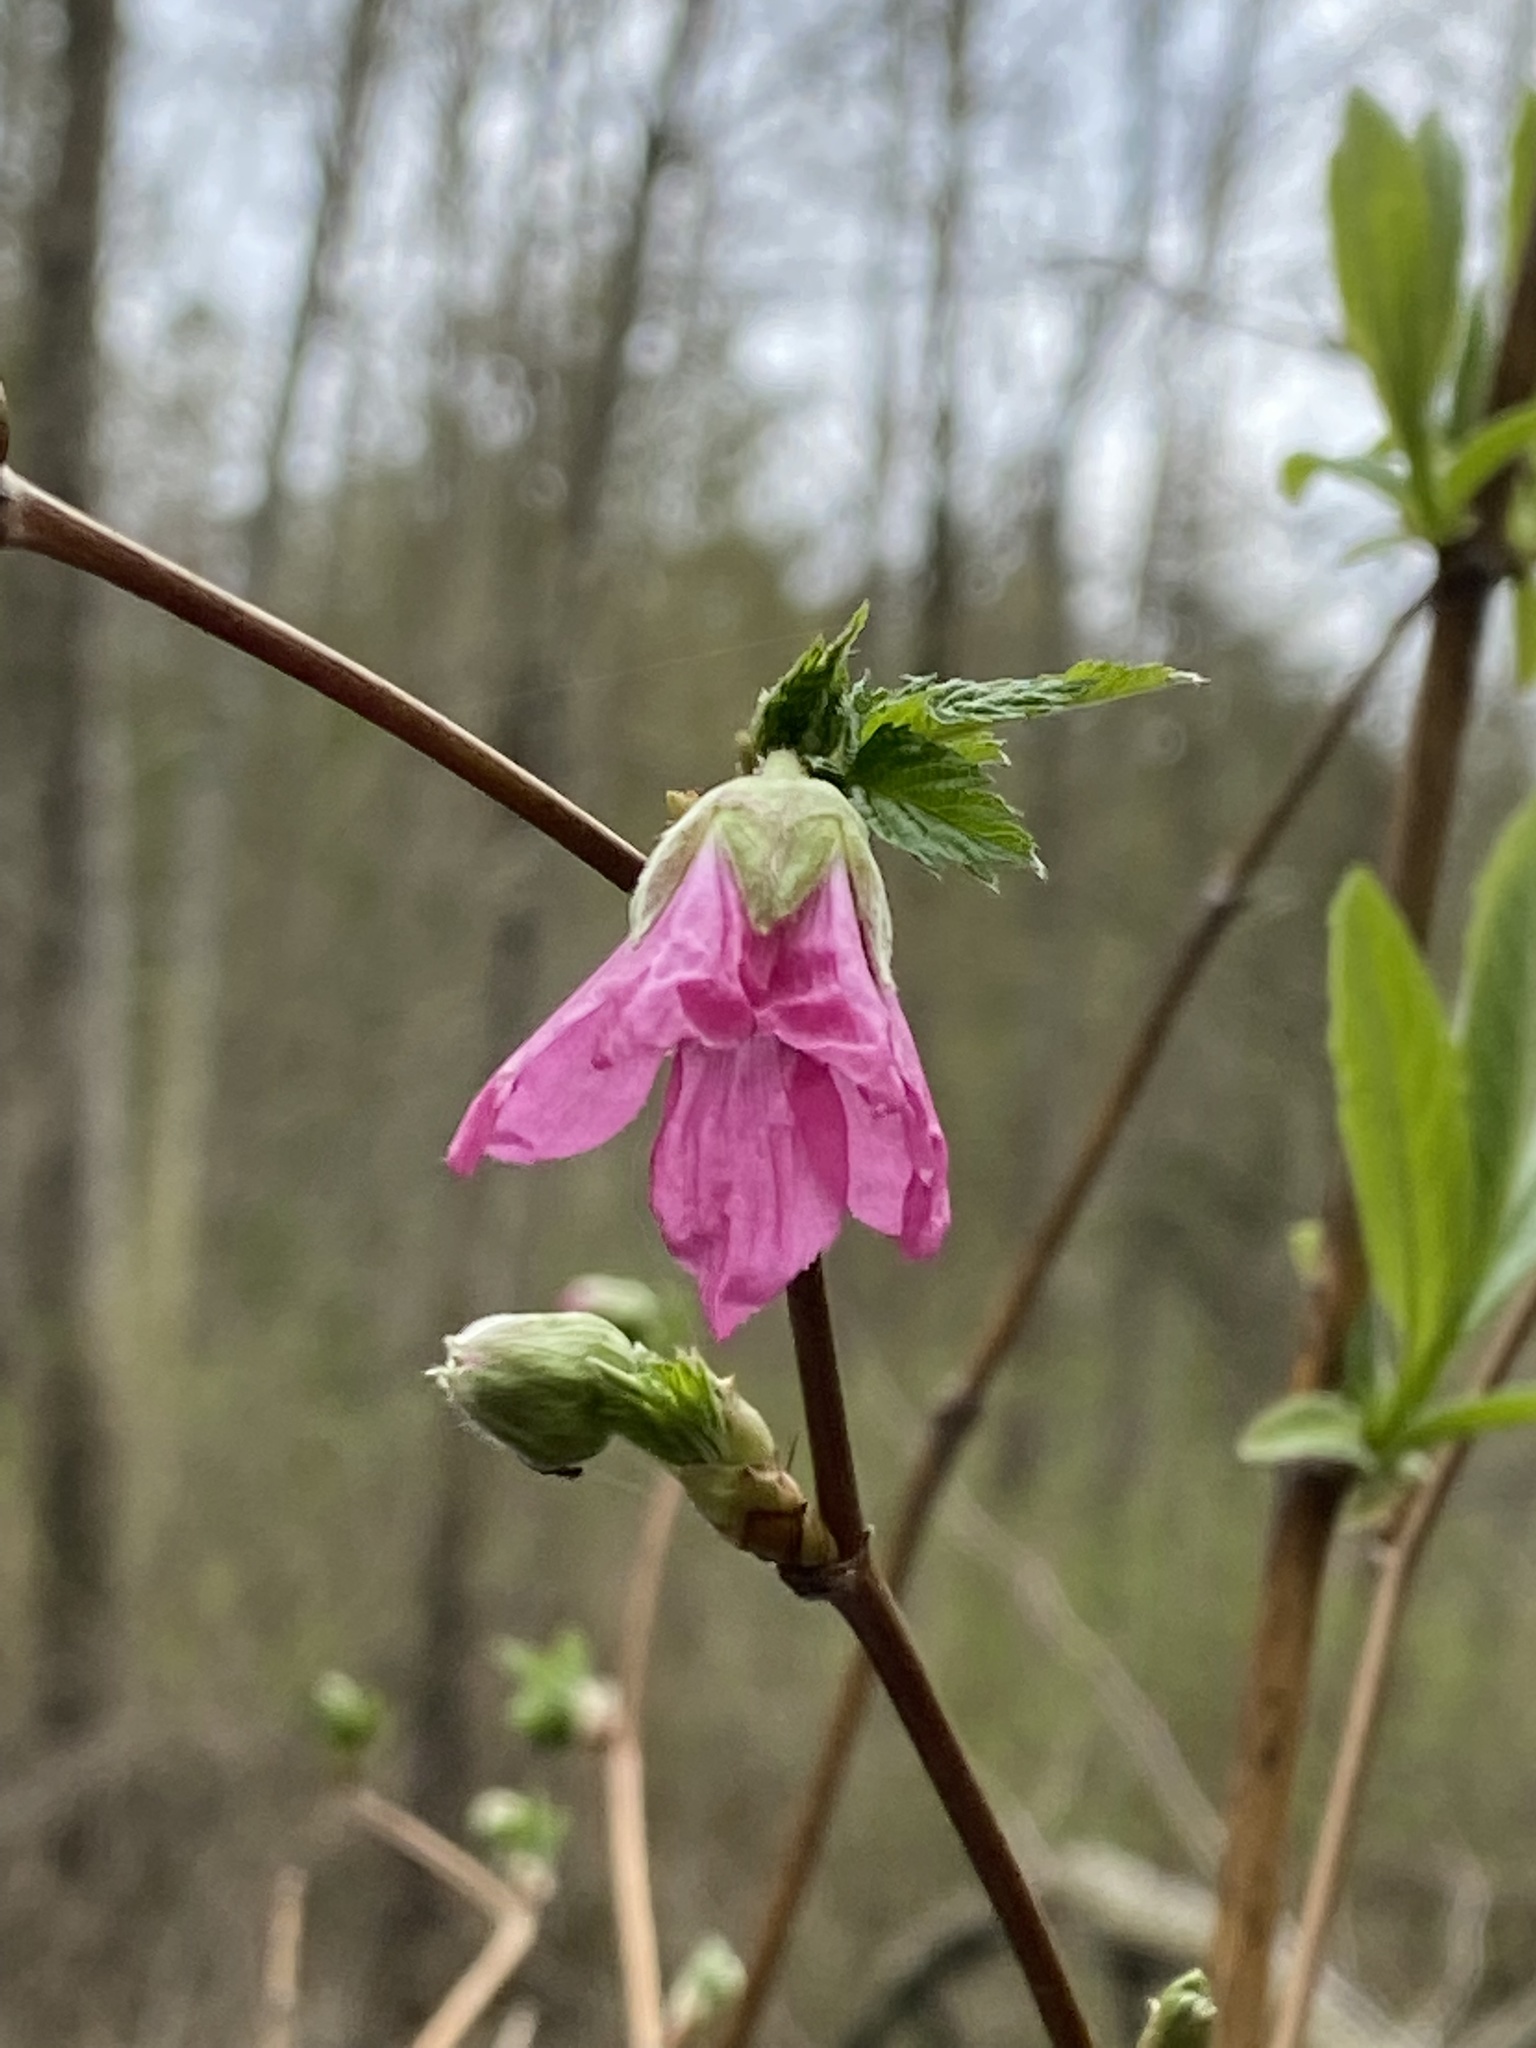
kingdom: Plantae
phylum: Tracheophyta
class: Magnoliopsida
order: Rosales
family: Rosaceae
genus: Rubus
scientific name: Rubus spectabilis
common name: Salmonberry
